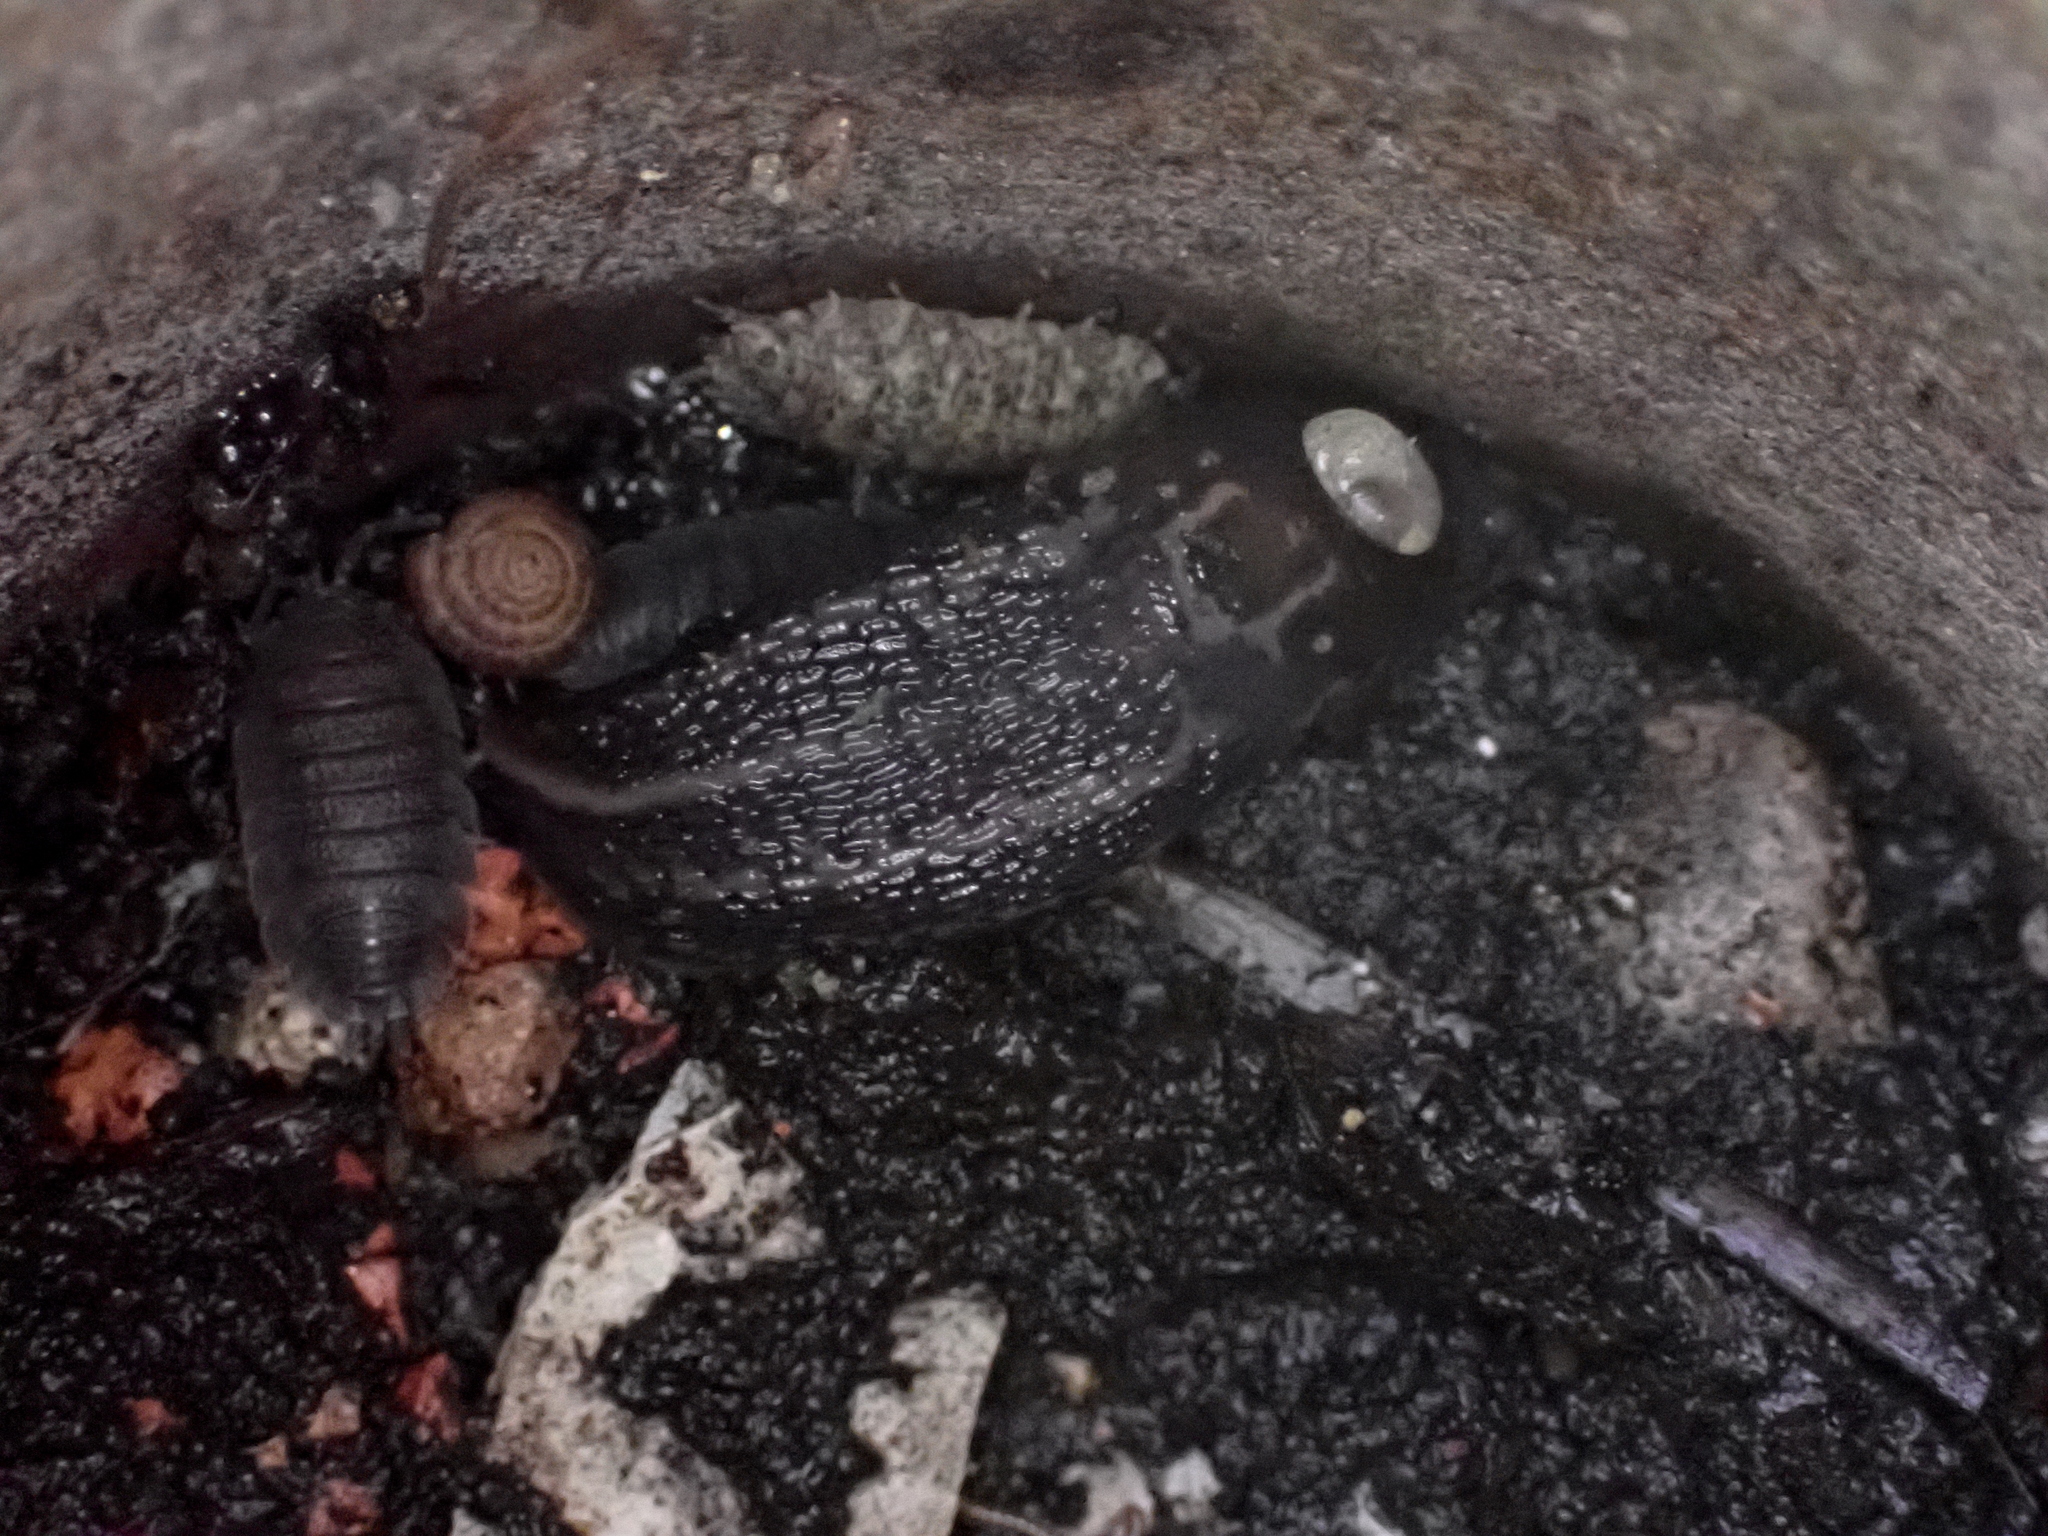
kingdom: Animalia
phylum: Mollusca
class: Gastropoda
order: Stylommatophora
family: Limacidae
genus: Limax
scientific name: Limax maximus
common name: Great grey slug
